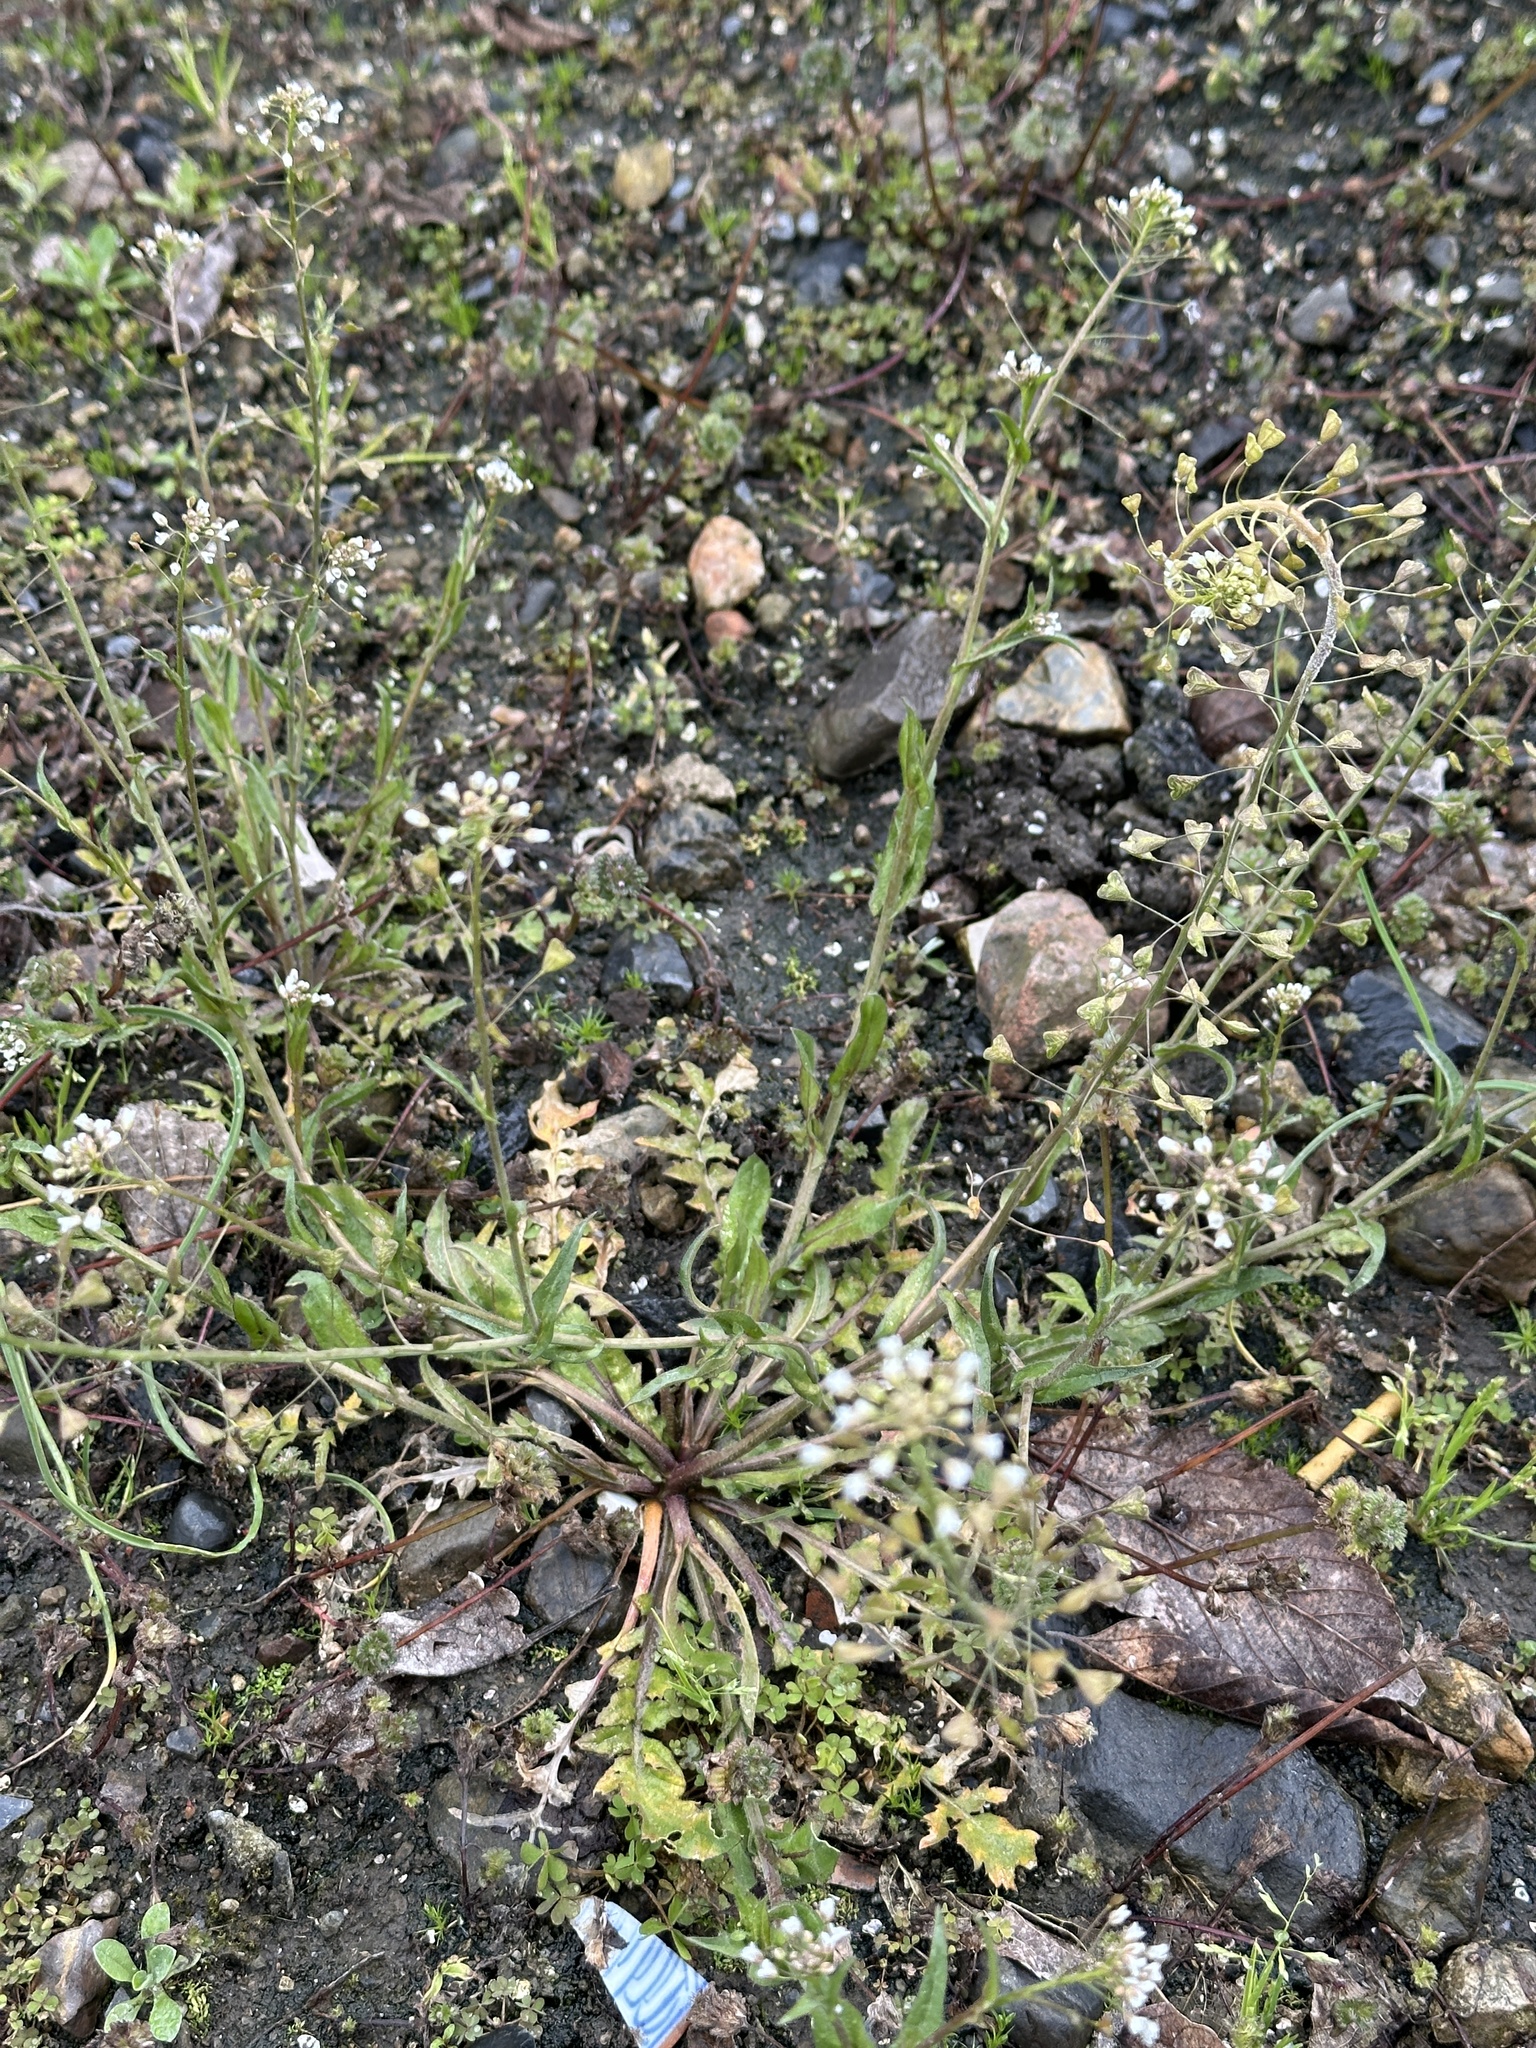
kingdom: Plantae
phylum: Tracheophyta
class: Magnoliopsida
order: Brassicales
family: Brassicaceae
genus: Capsella
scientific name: Capsella bursa-pastoris
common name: Shepherd's purse
